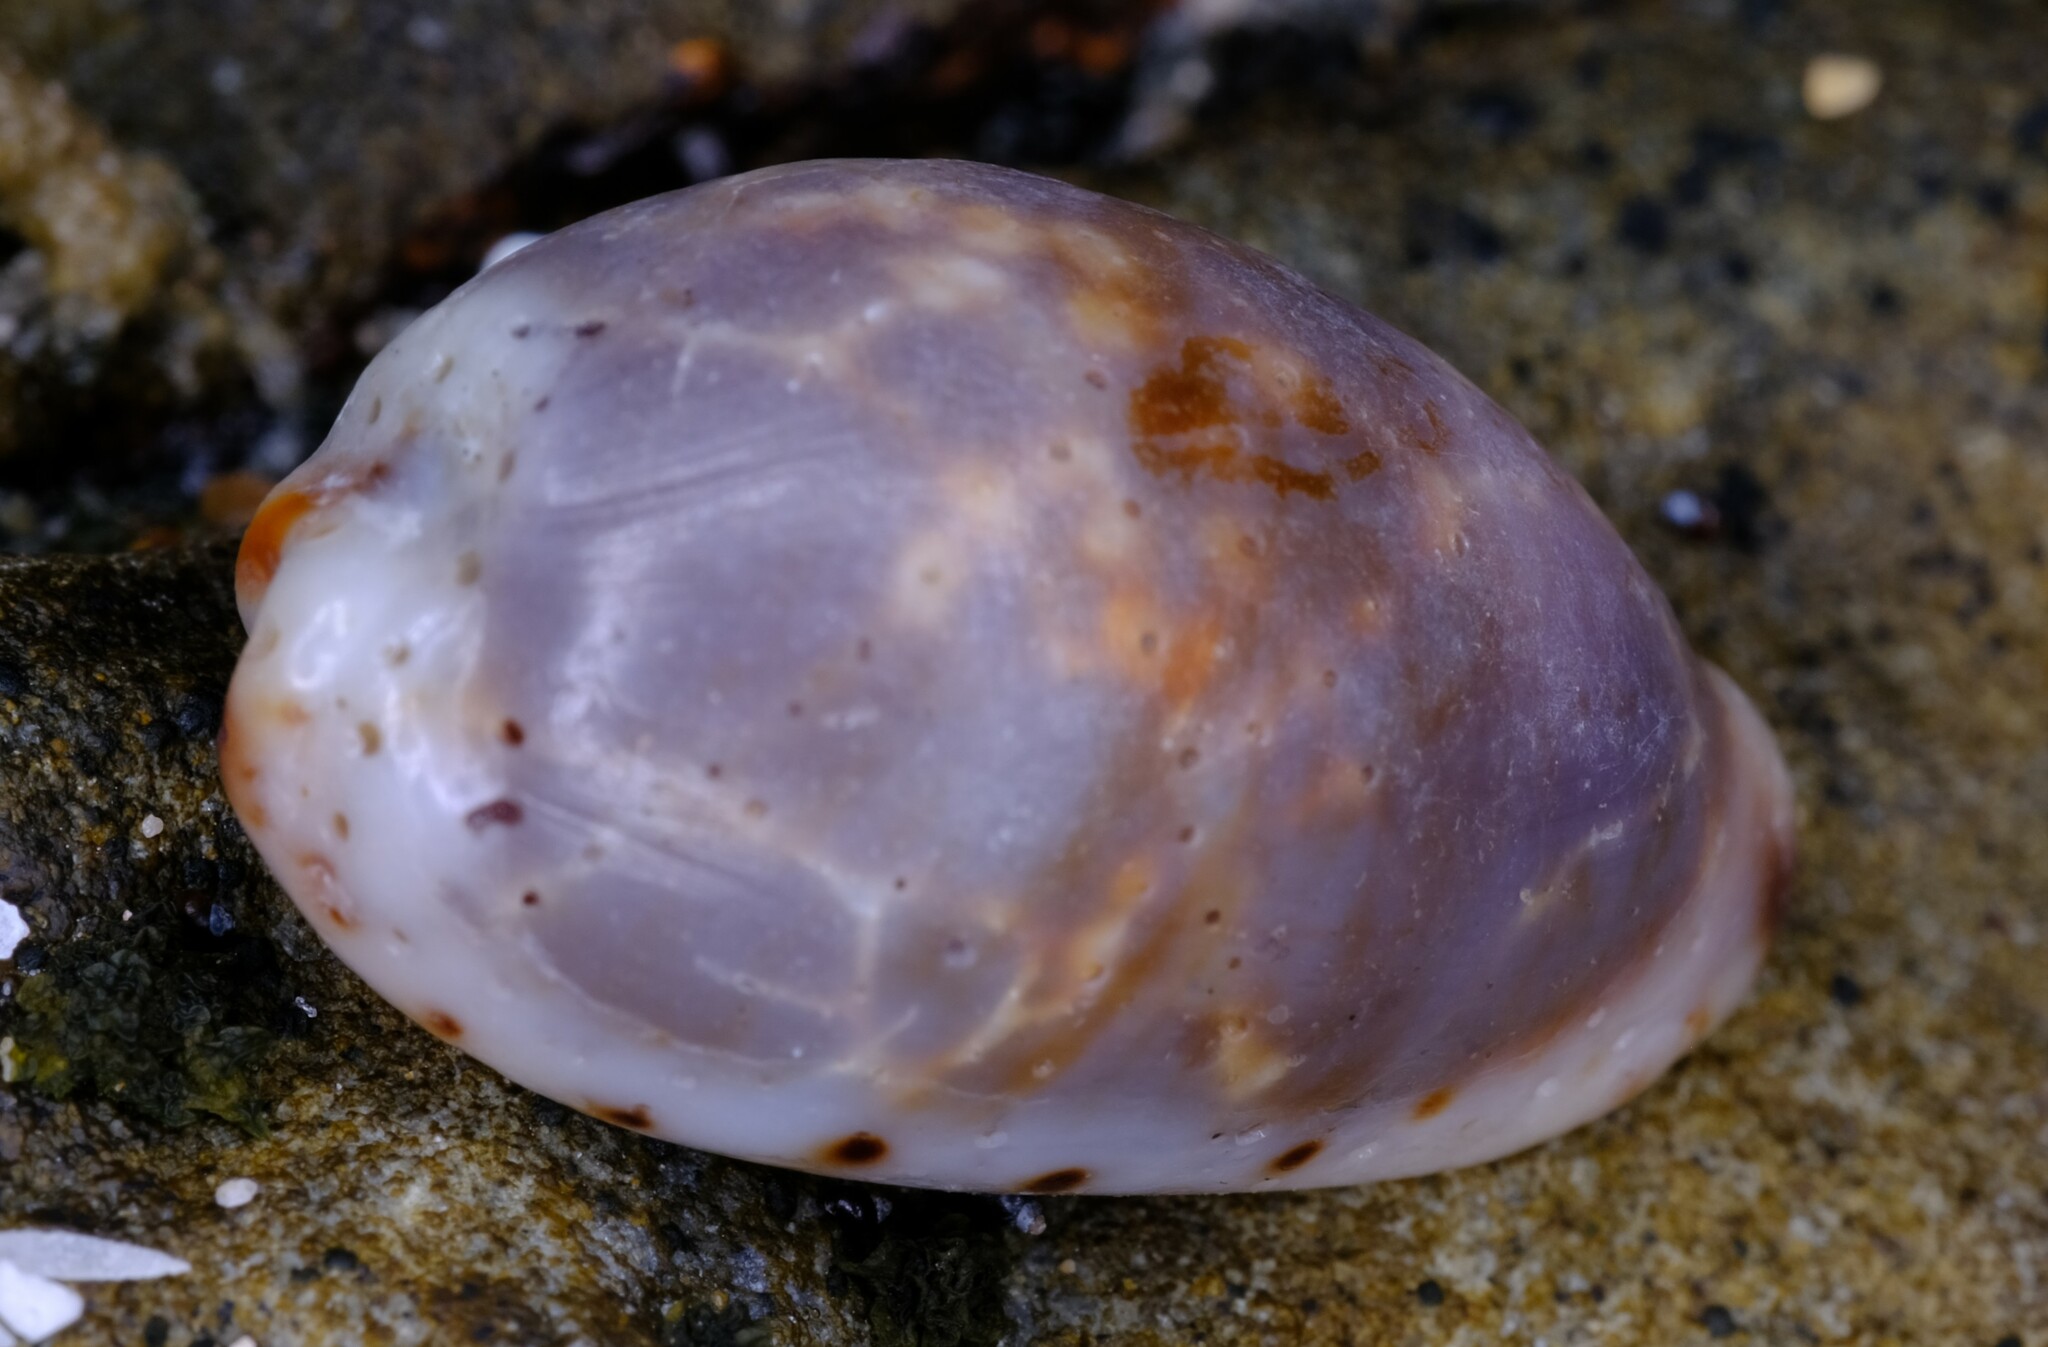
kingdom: Animalia
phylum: Mollusca
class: Gastropoda
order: Littorinimorpha
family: Cypraeidae
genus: Purpuradusta
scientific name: Purpuradusta gracilis
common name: Graceful cowrie
